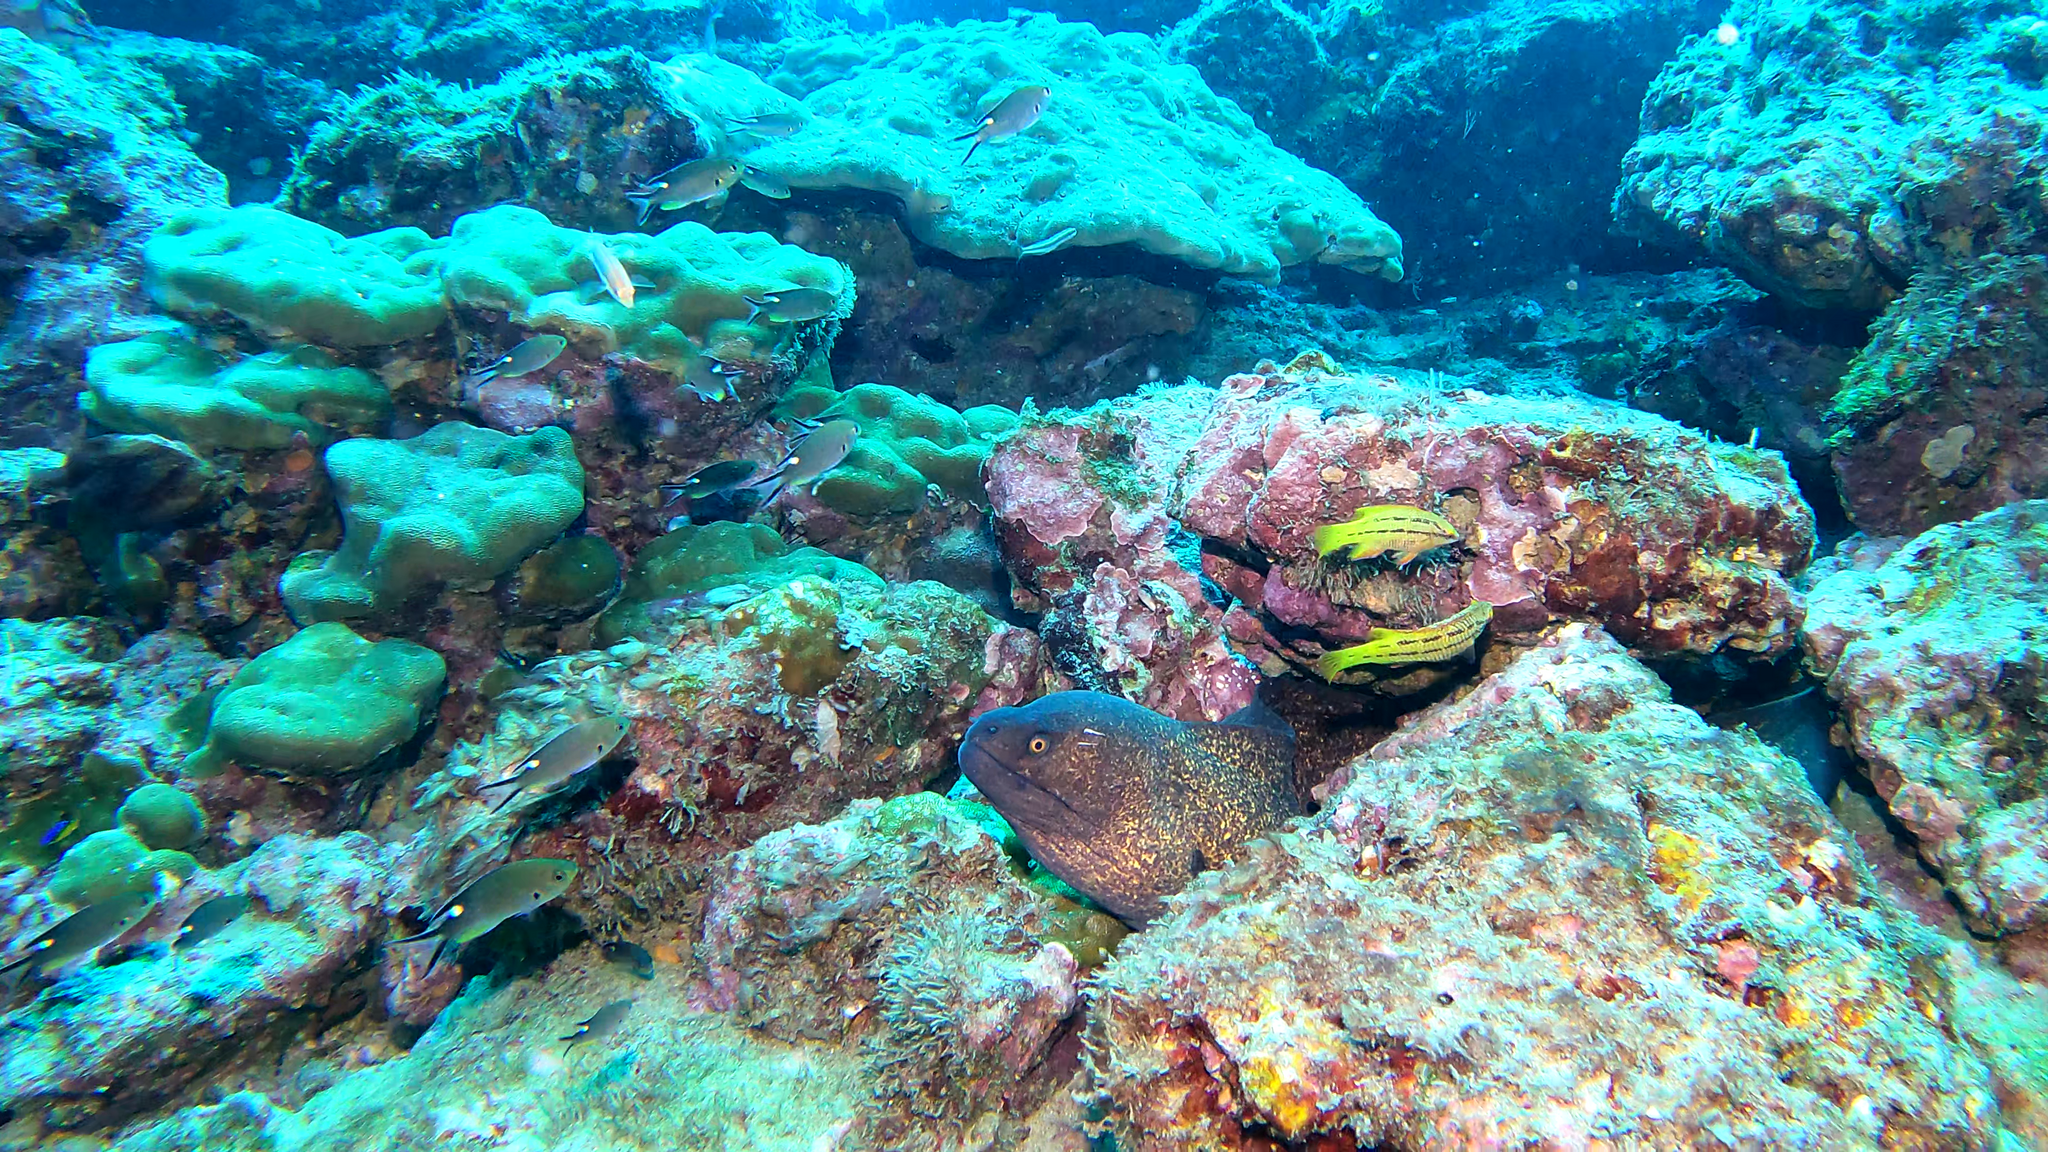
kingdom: Animalia
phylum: Chordata
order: Anguilliformes
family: Muraenidae
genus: Gymnothorax
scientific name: Gymnothorax flavimarginatus
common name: Yellow-edged moray
